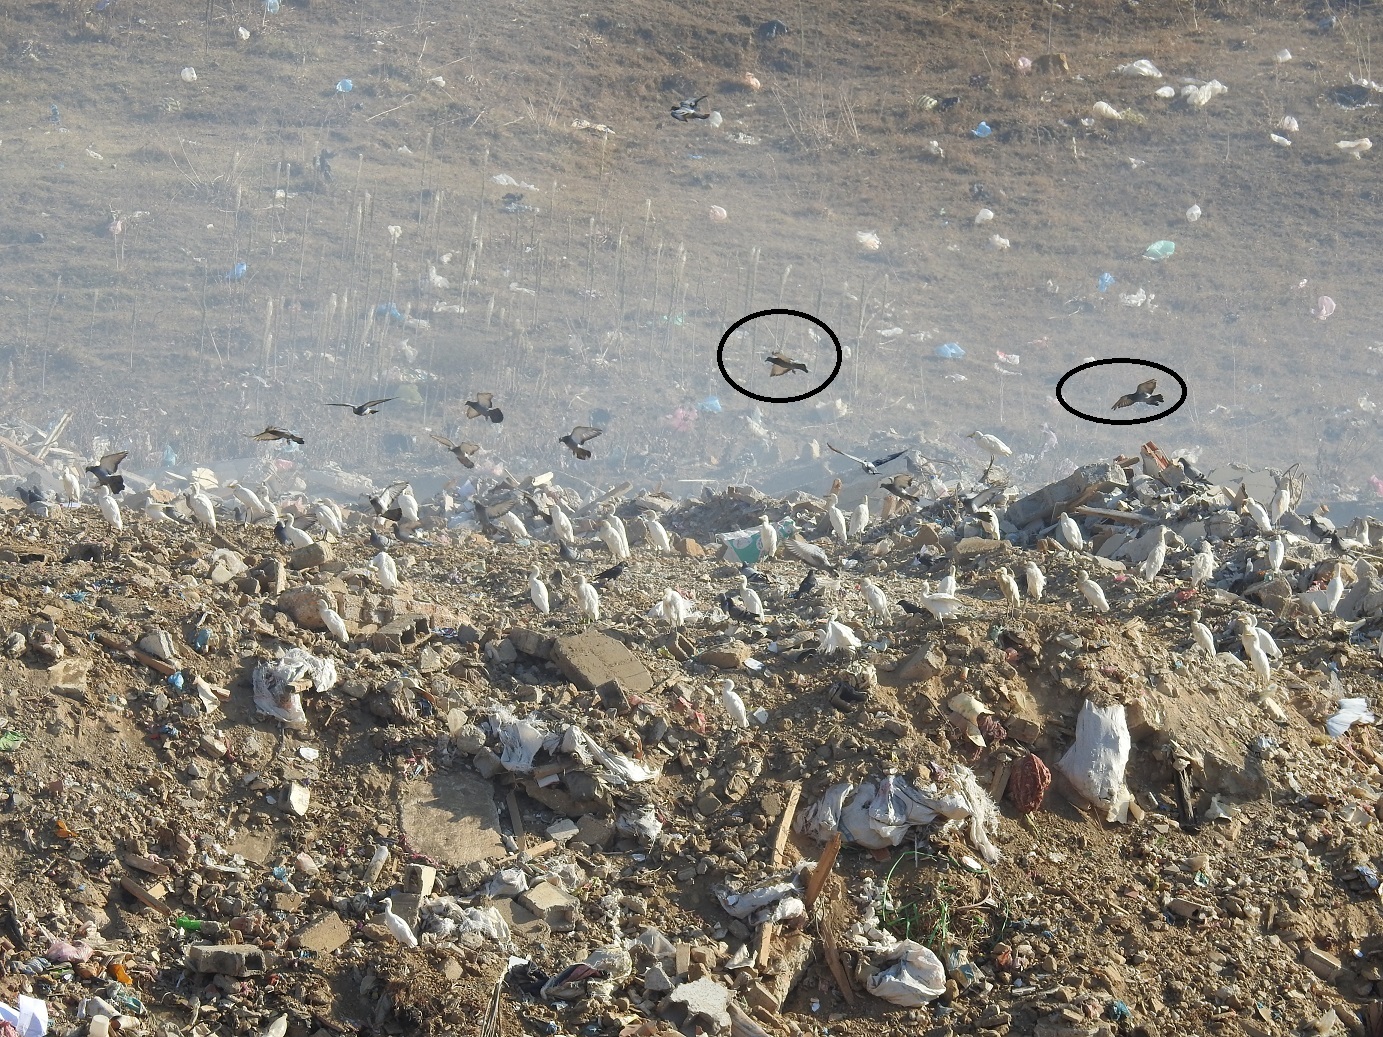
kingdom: Animalia
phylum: Chordata
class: Aves
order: Columbiformes
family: Columbidae
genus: Columba
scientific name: Columba livia
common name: Rock pigeon
